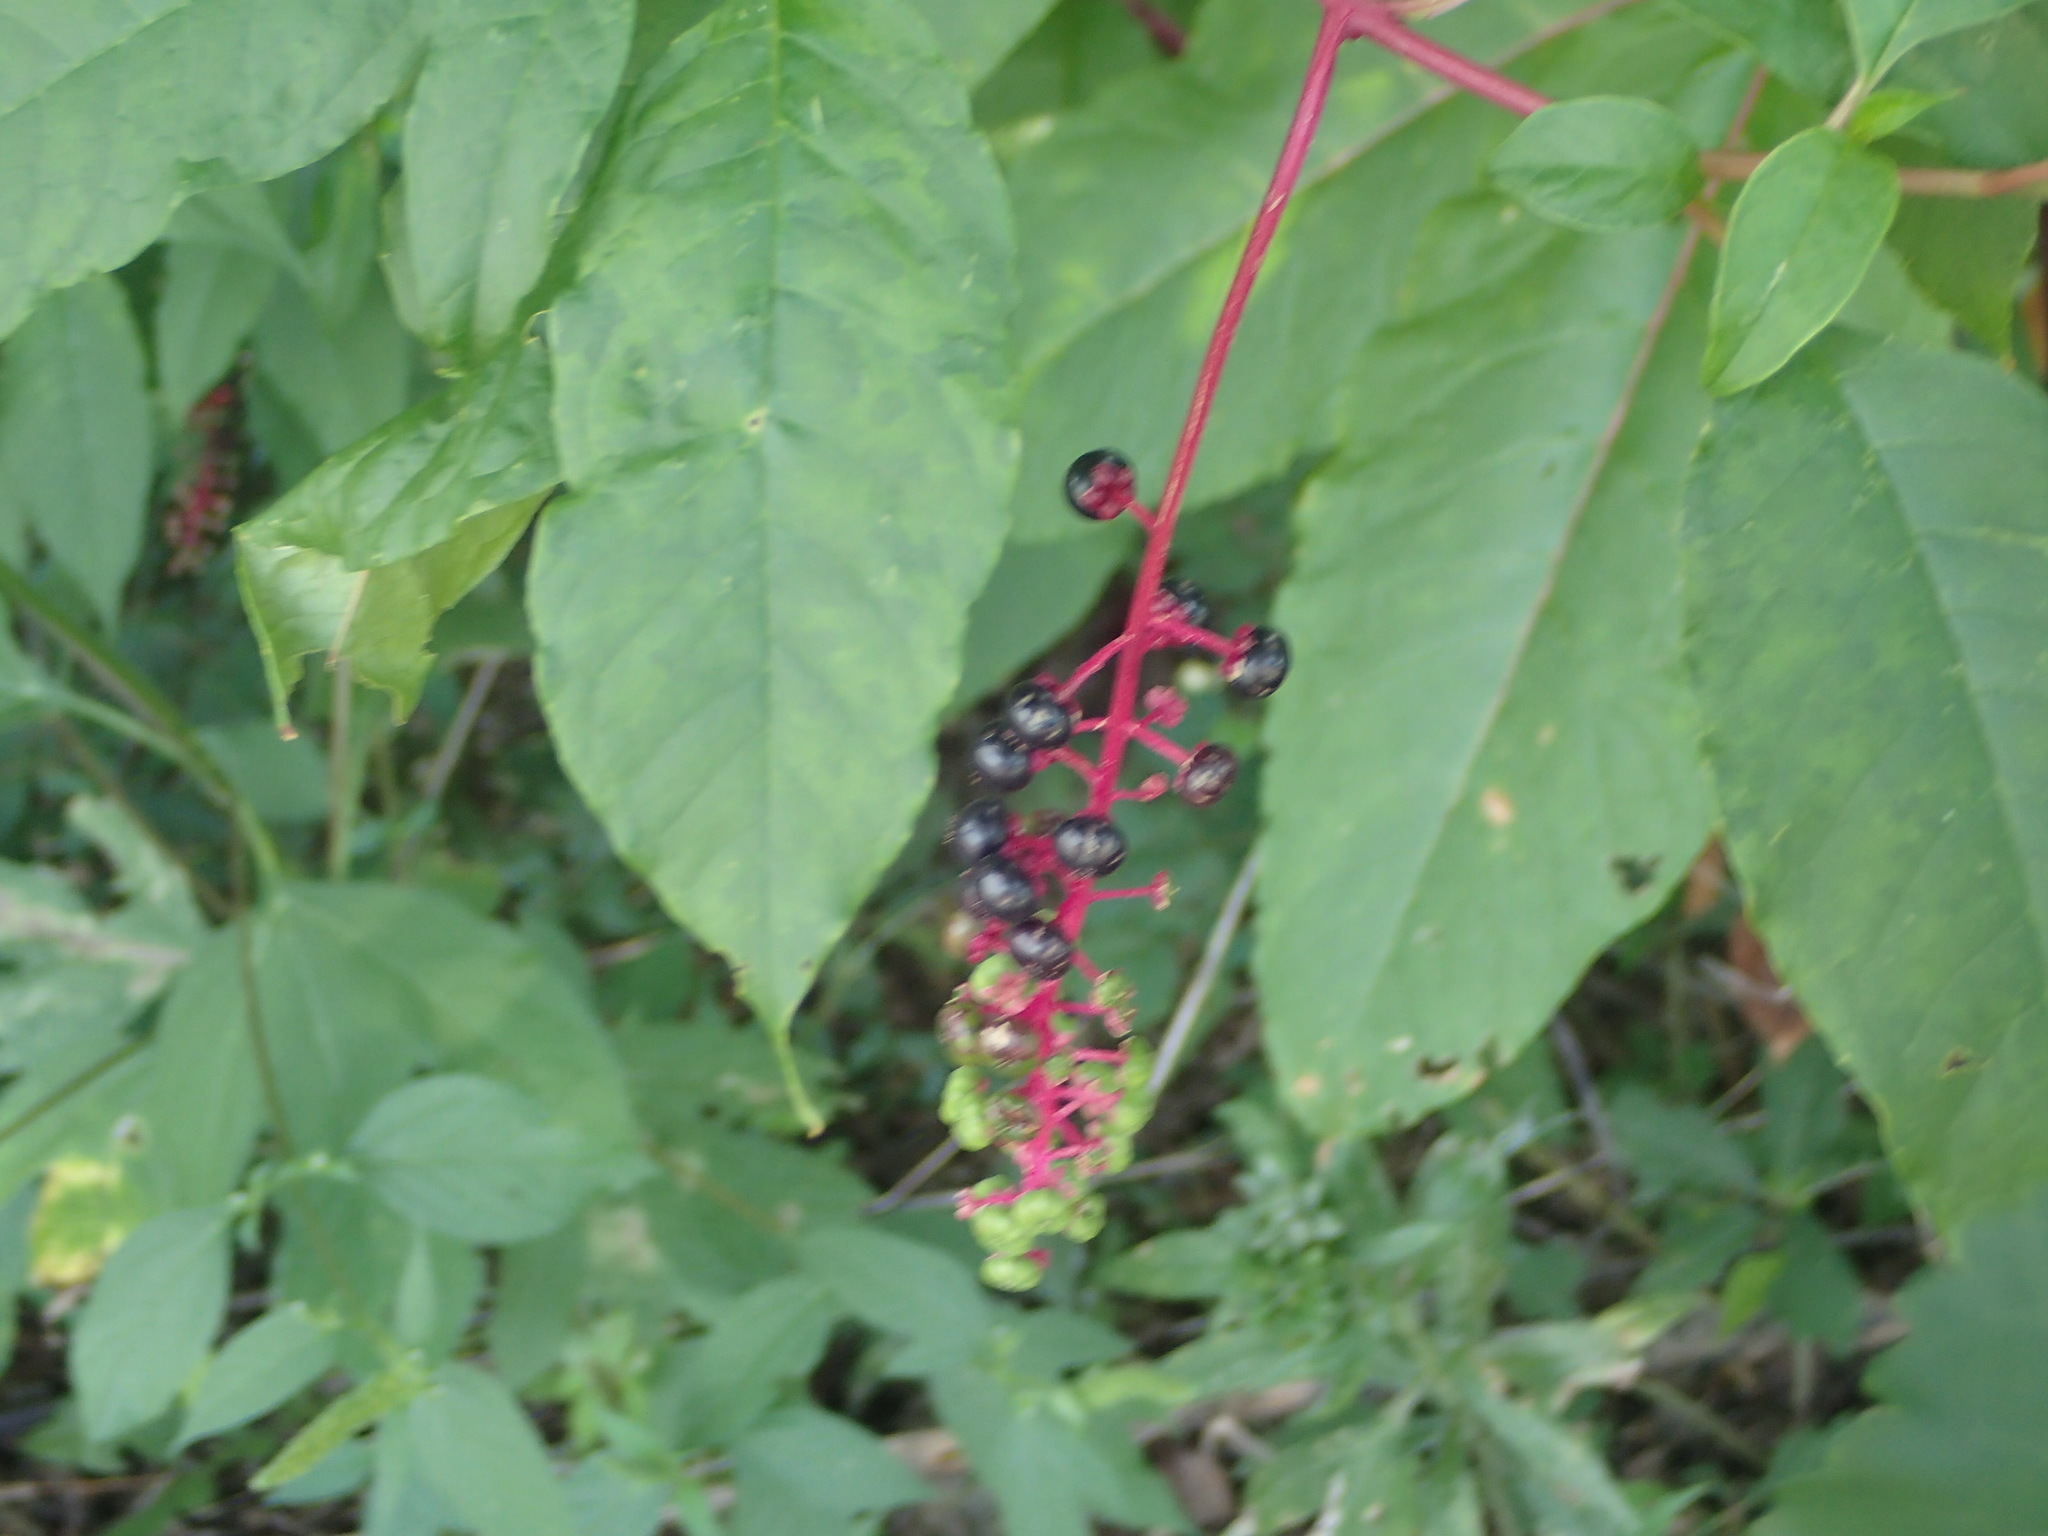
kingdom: Plantae
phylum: Tracheophyta
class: Magnoliopsida
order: Caryophyllales
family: Phytolaccaceae
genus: Phytolacca
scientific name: Phytolacca americana
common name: American pokeweed
